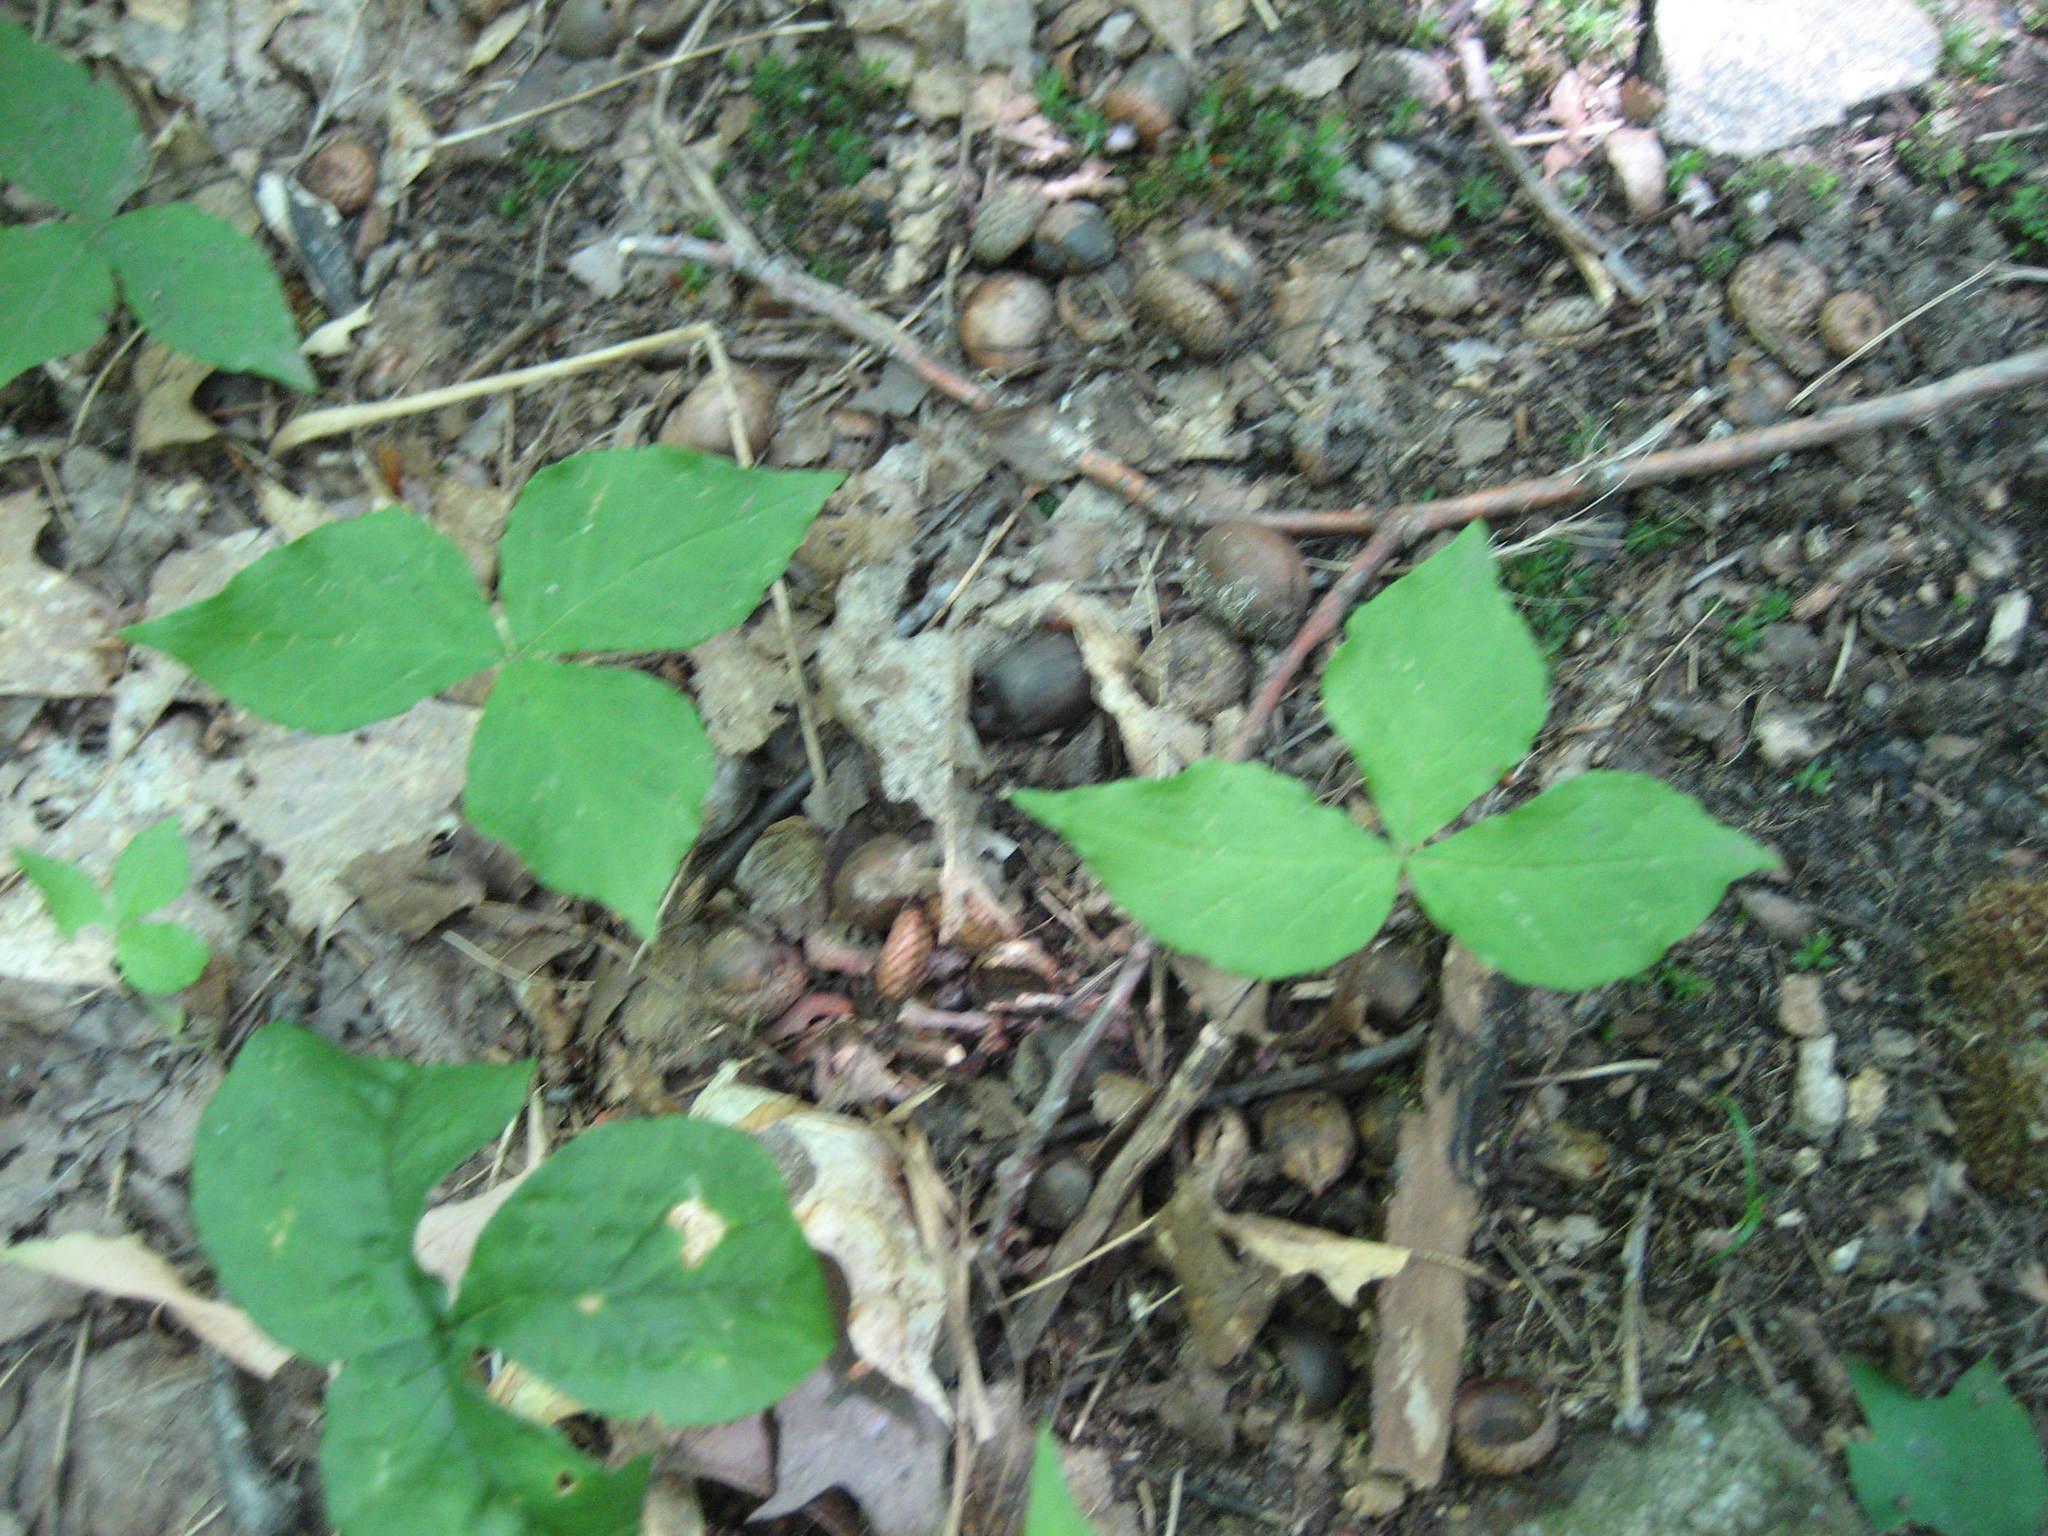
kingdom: Plantae
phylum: Tracheophyta
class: Liliopsida
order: Alismatales
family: Araceae
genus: Arisaema
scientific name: Arisaema triphyllum
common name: Jack-in-the-pulpit
